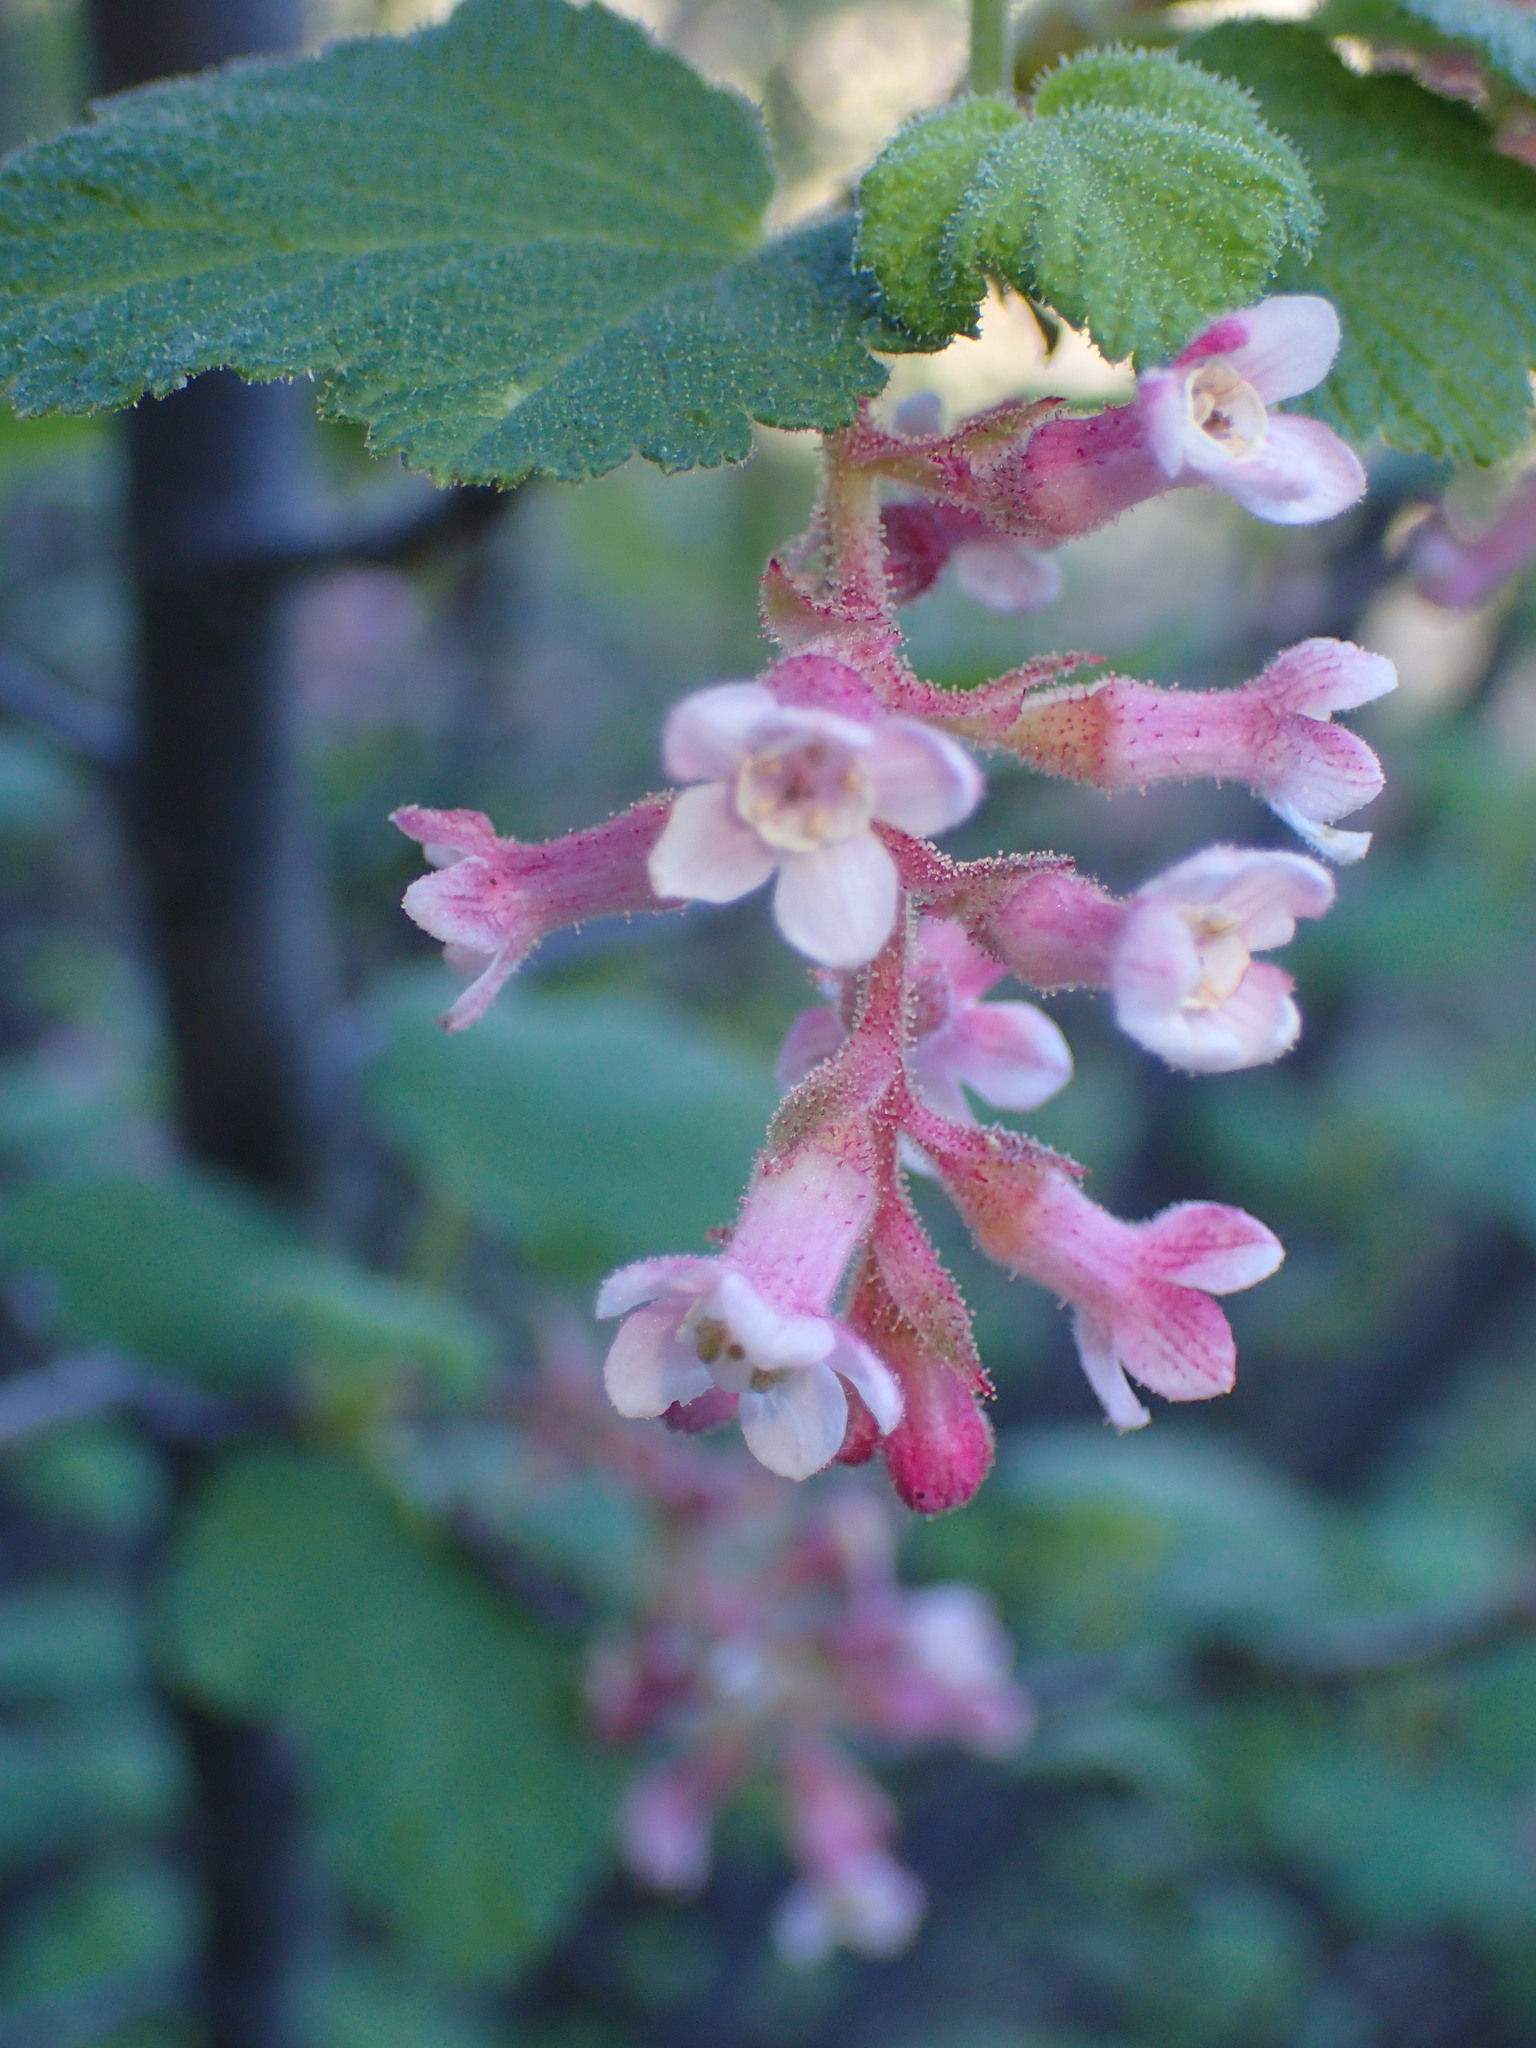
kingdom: Plantae
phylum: Tracheophyta
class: Magnoliopsida
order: Saxifragales
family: Grossulariaceae
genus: Ribes
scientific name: Ribes malvaceum
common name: Chaparral currant
